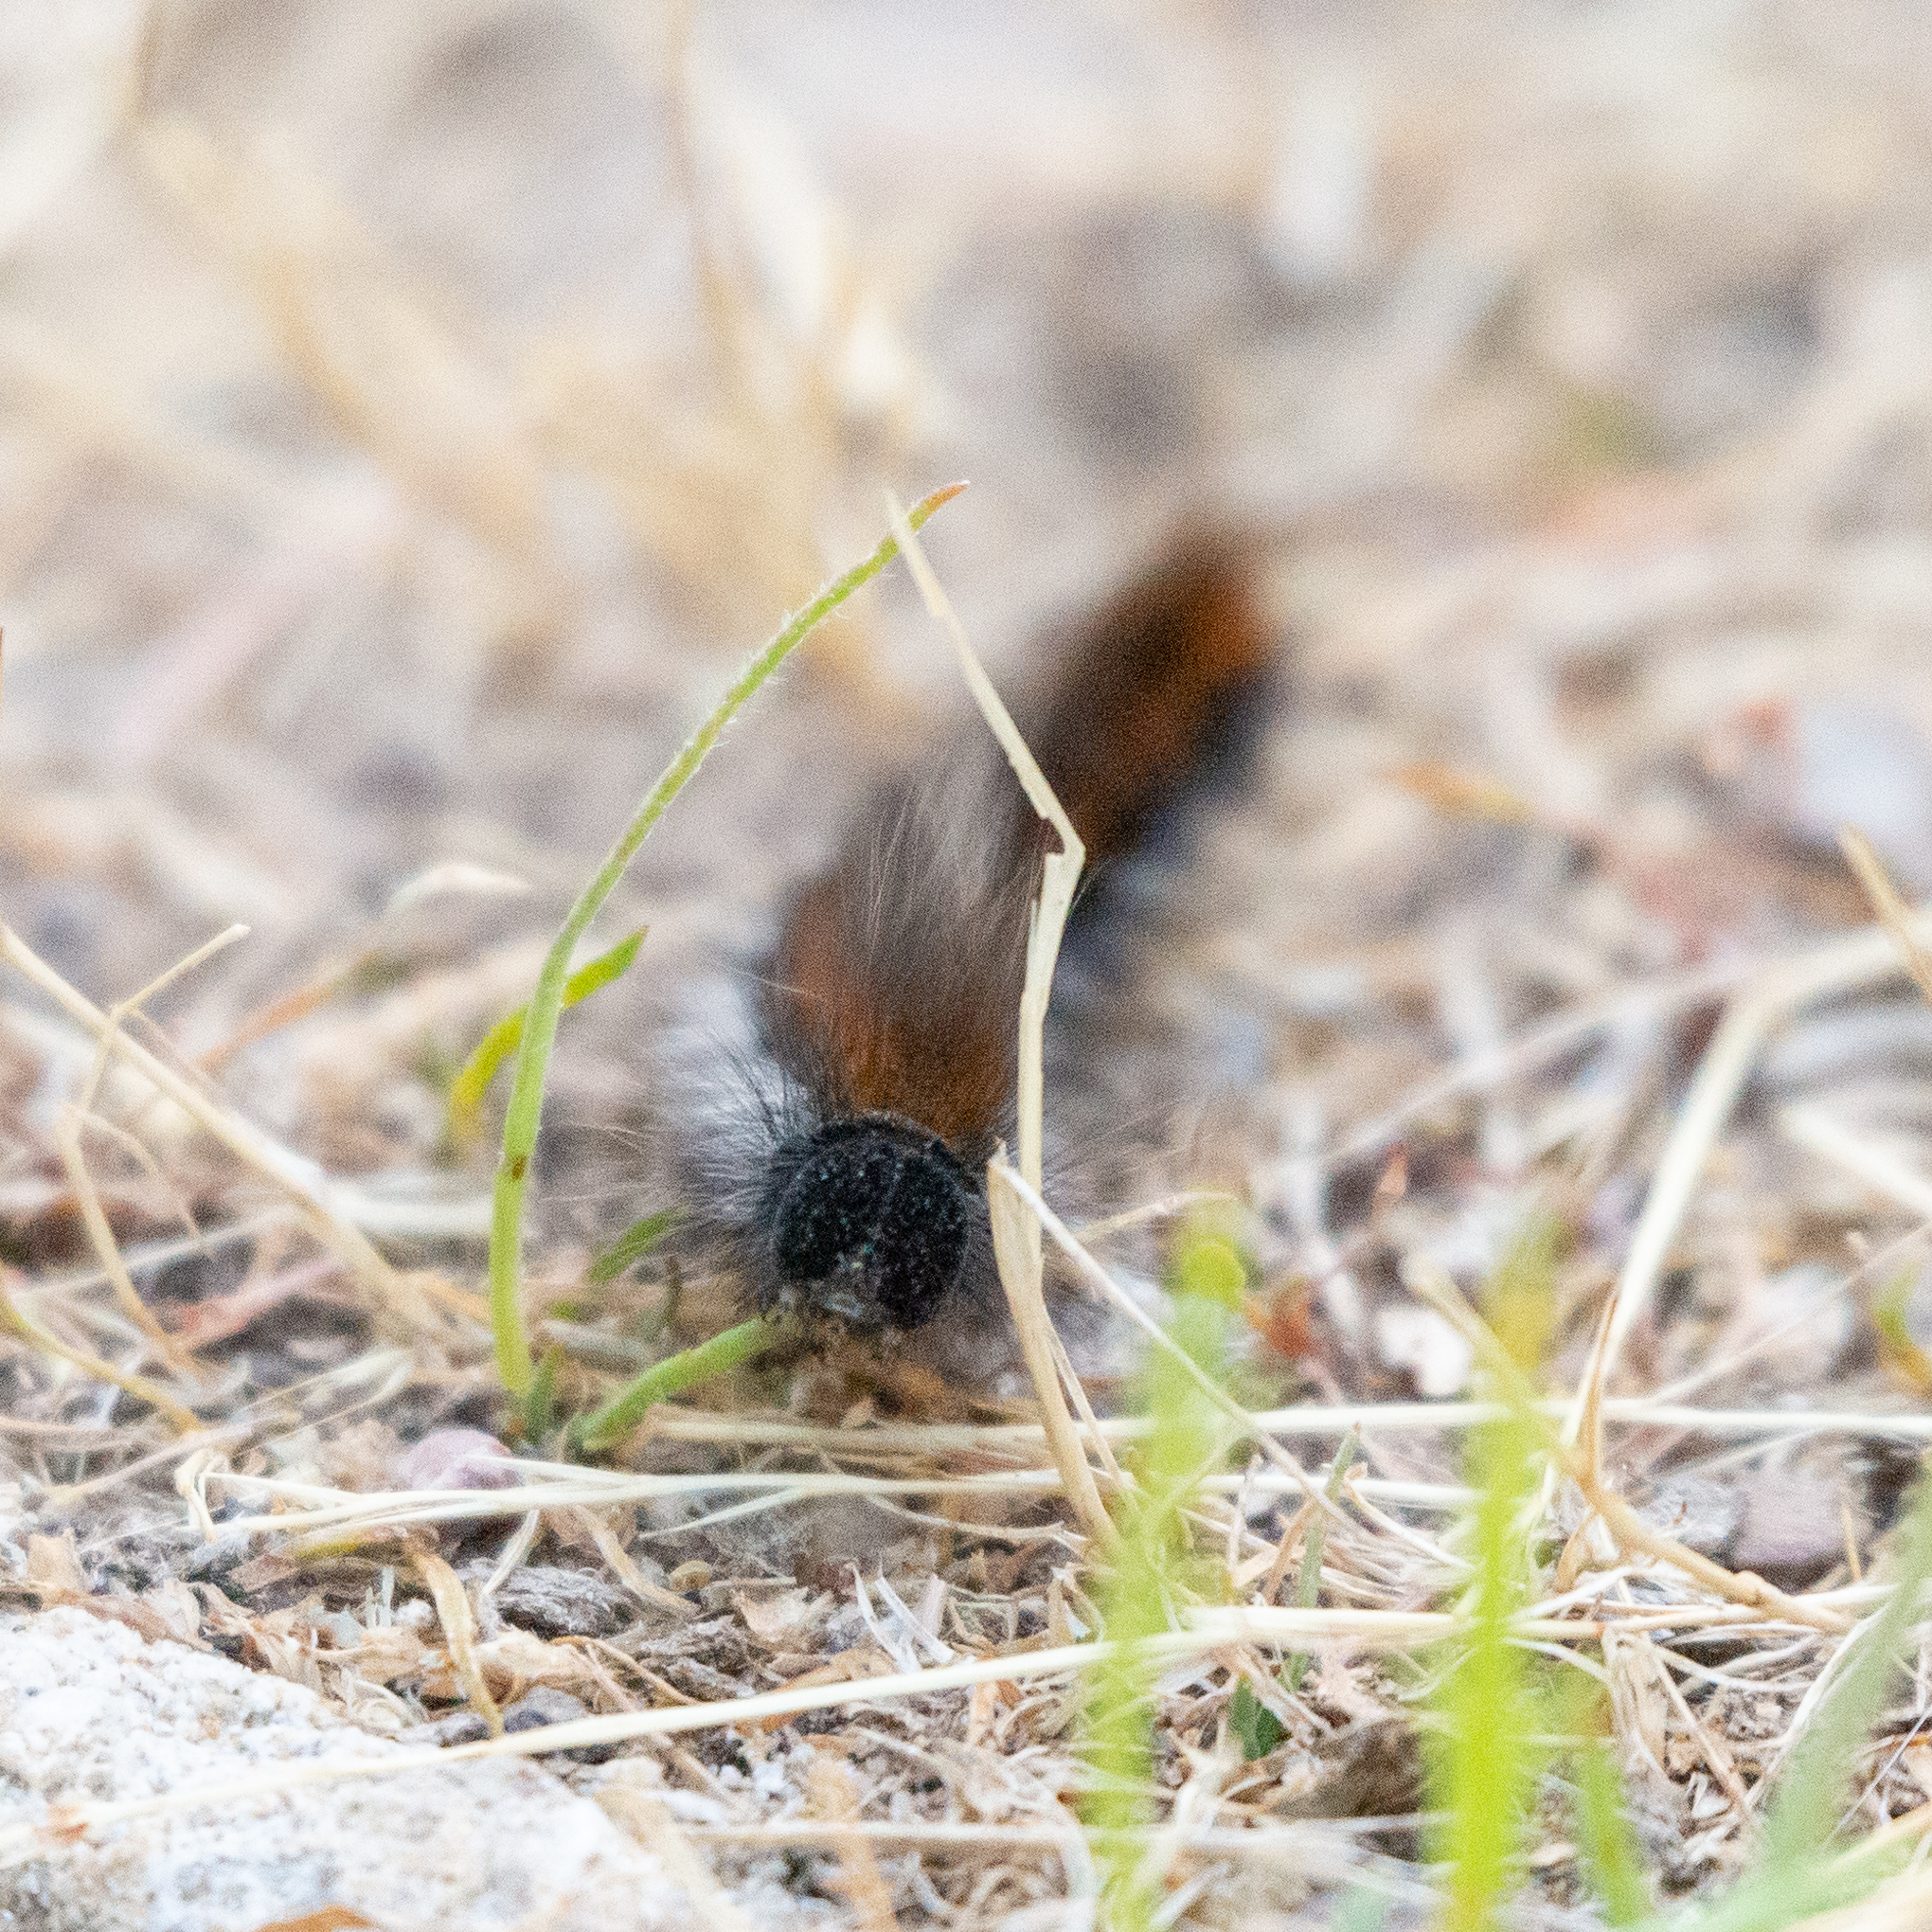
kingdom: Animalia
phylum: Arthropoda
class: Insecta
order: Lepidoptera
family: Lasiocampidae
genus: Macrothylacia
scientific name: Macrothylacia rubi
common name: Fox moth
